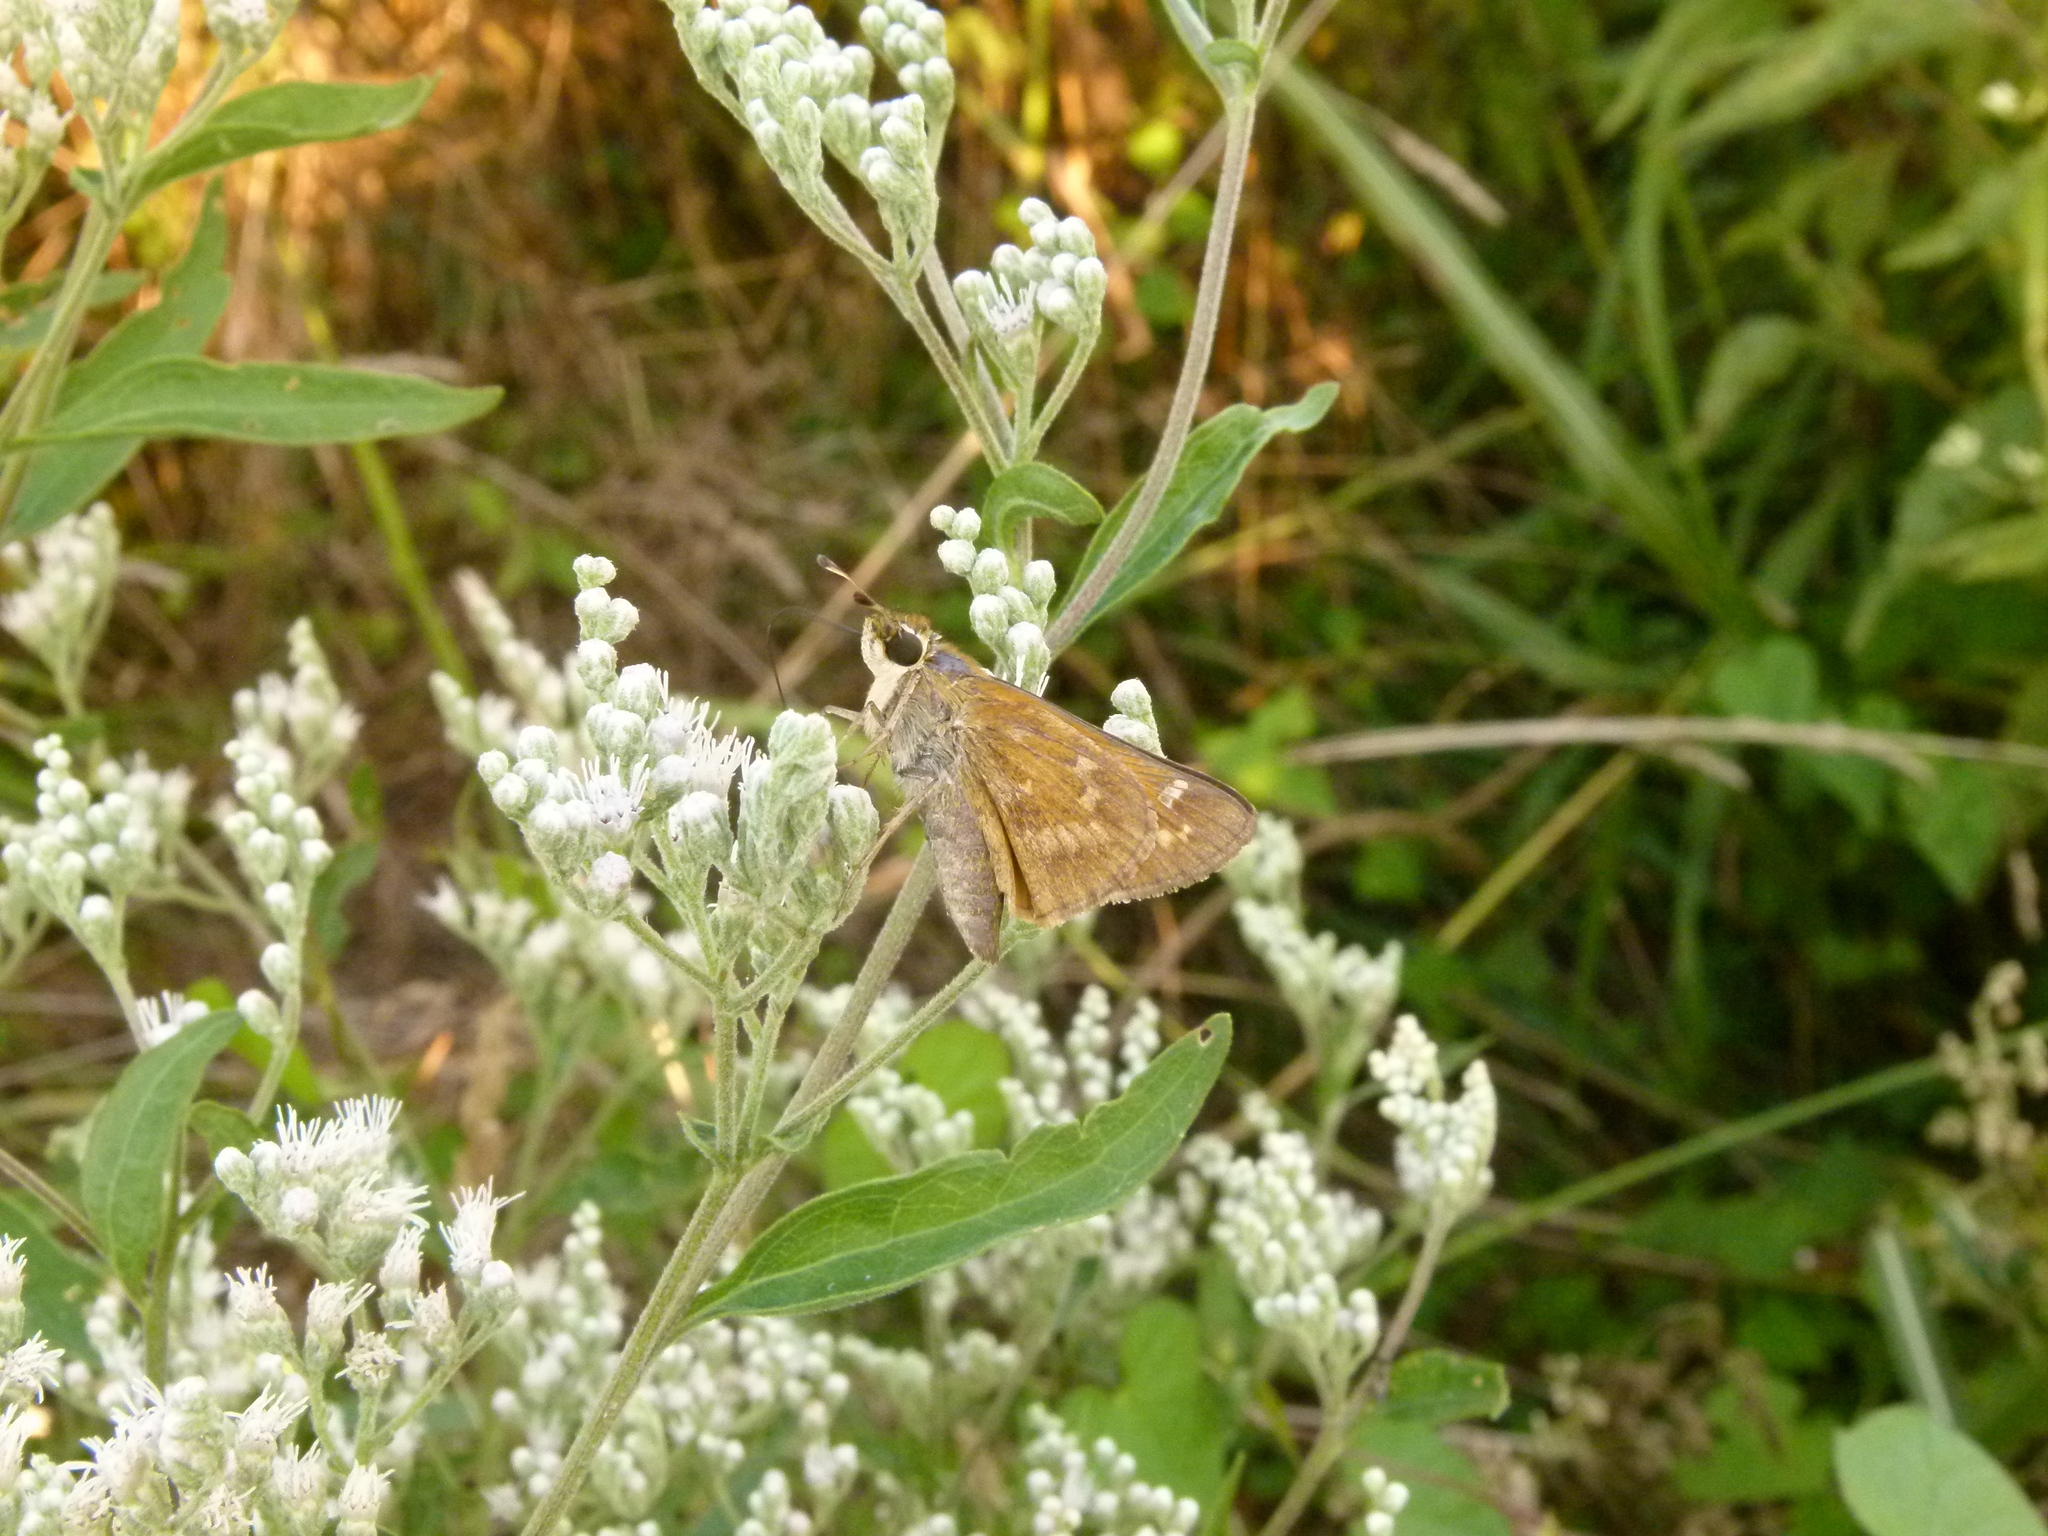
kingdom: Animalia
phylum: Arthropoda
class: Insecta
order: Lepidoptera
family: Hesperiidae
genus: Atalopedes
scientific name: Atalopedes
